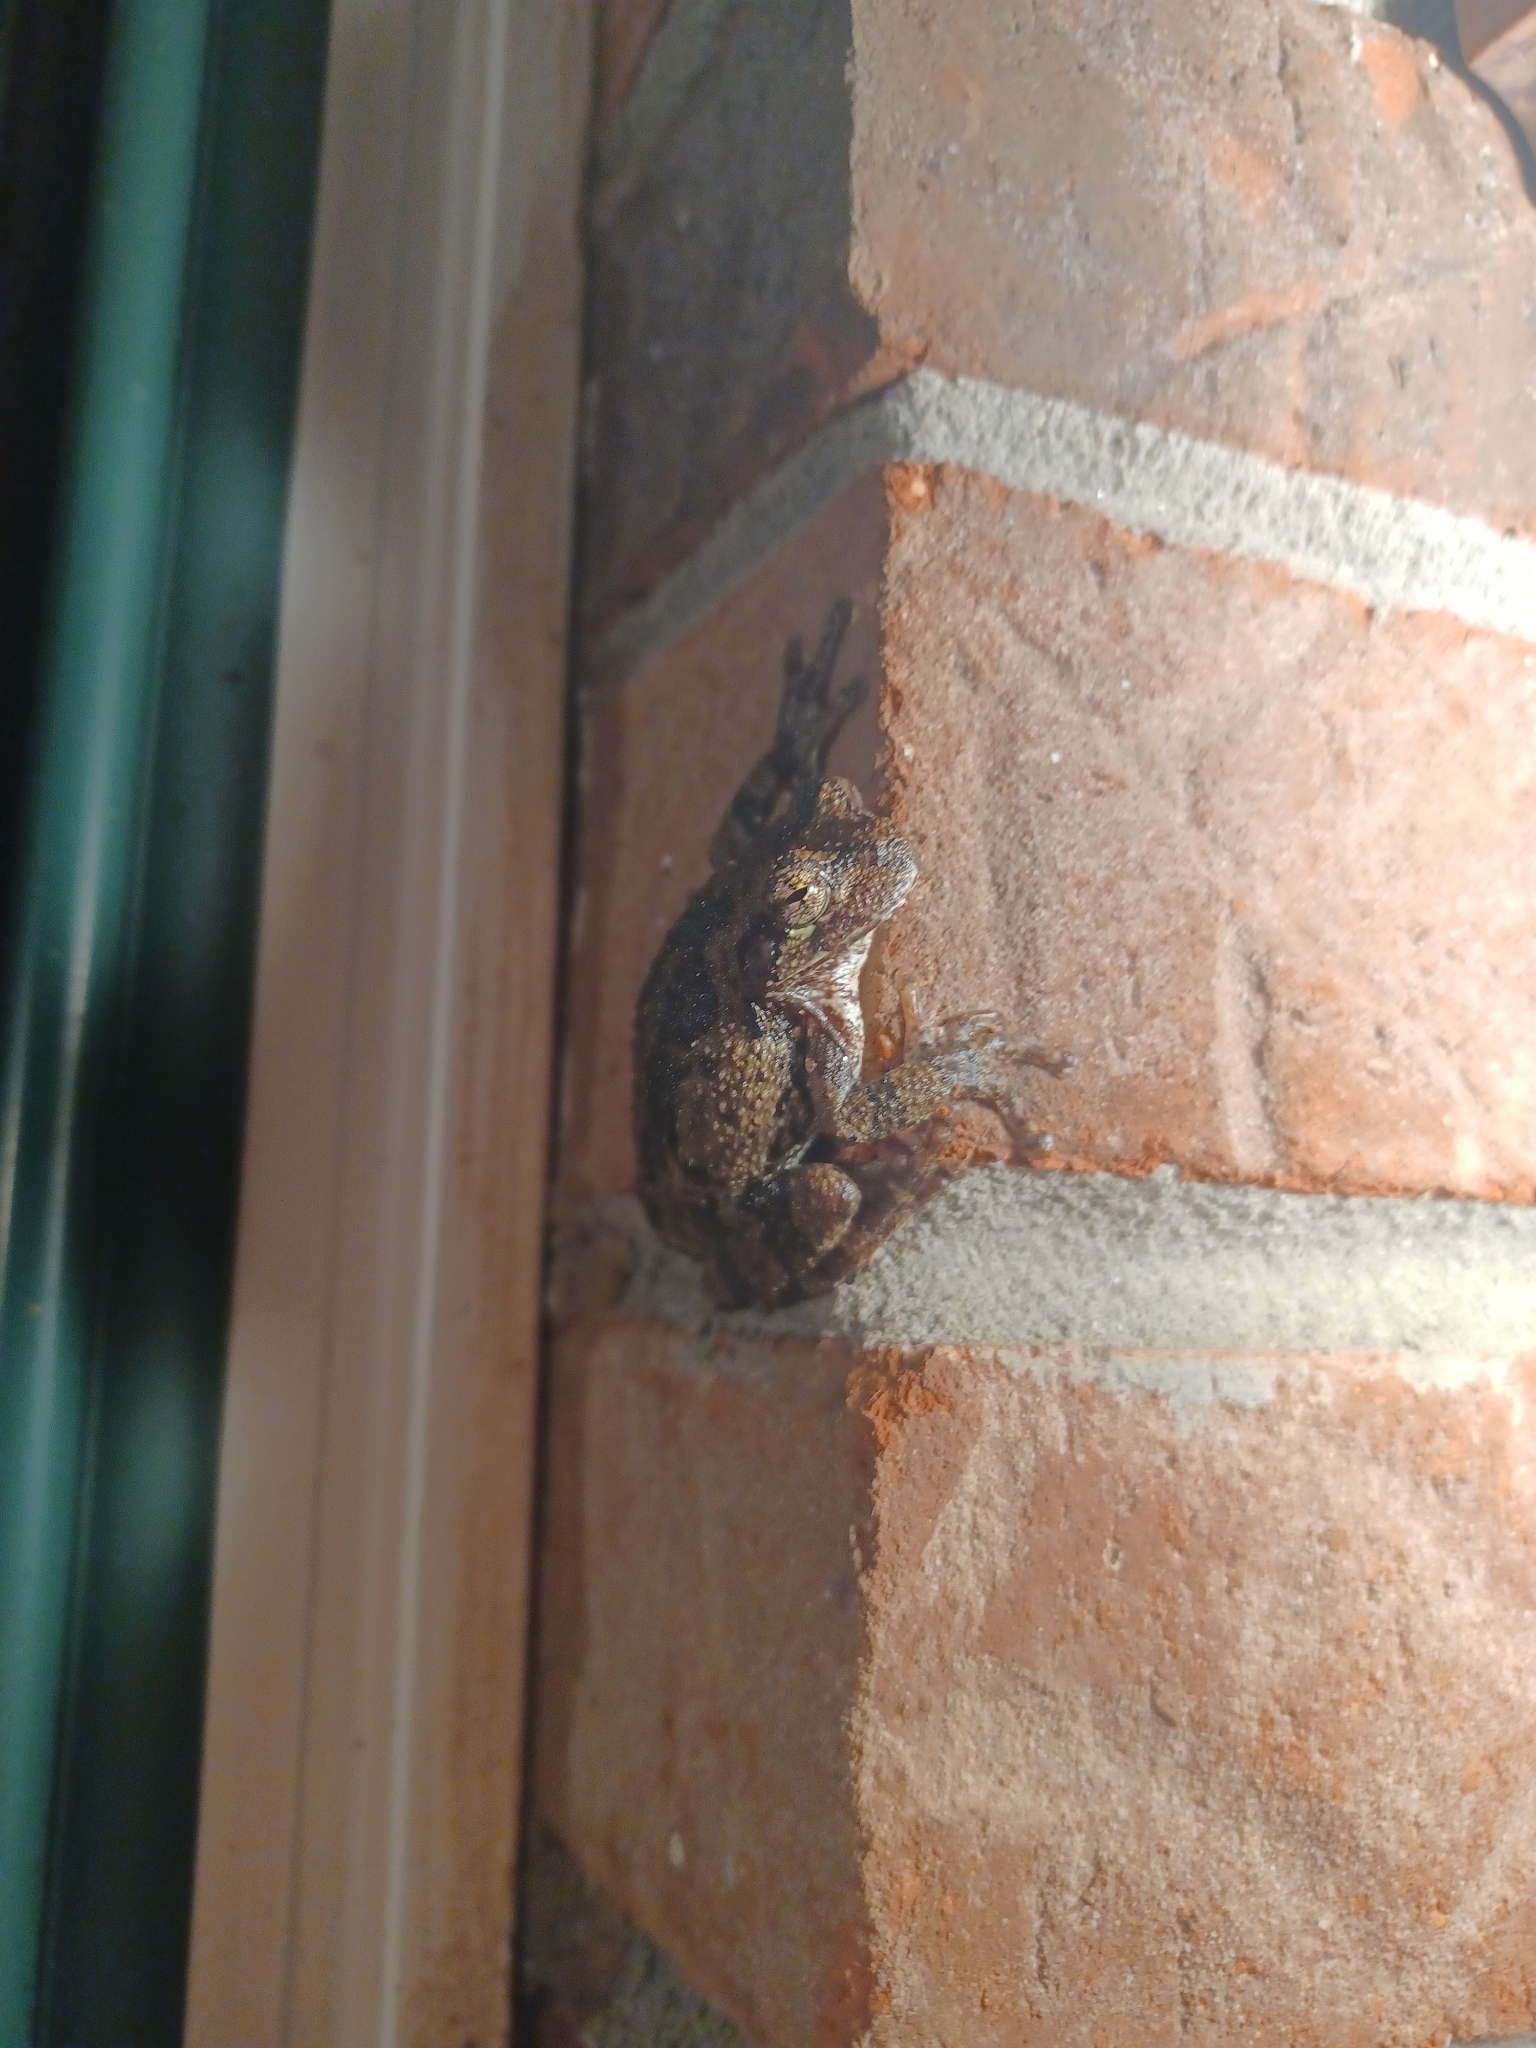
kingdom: Animalia
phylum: Chordata
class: Amphibia
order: Anura
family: Hylidae
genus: Dryophytes
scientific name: Dryophytes chrysoscelis
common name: Cope's gray treefrog
